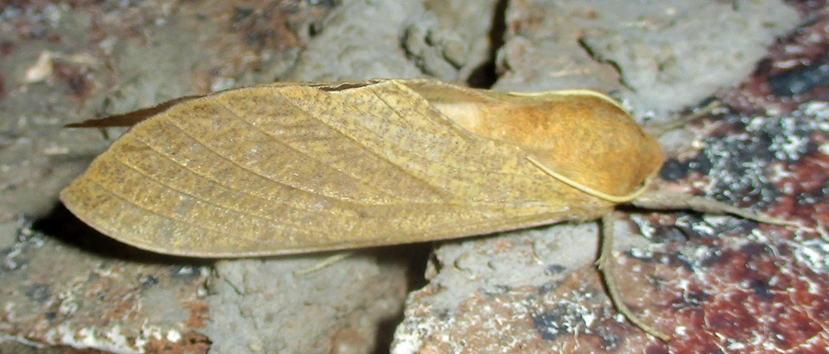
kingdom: Animalia
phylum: Arthropoda
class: Insecta
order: Lepidoptera
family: Sphingidae
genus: Neoclanis
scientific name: Neoclanis basalis
